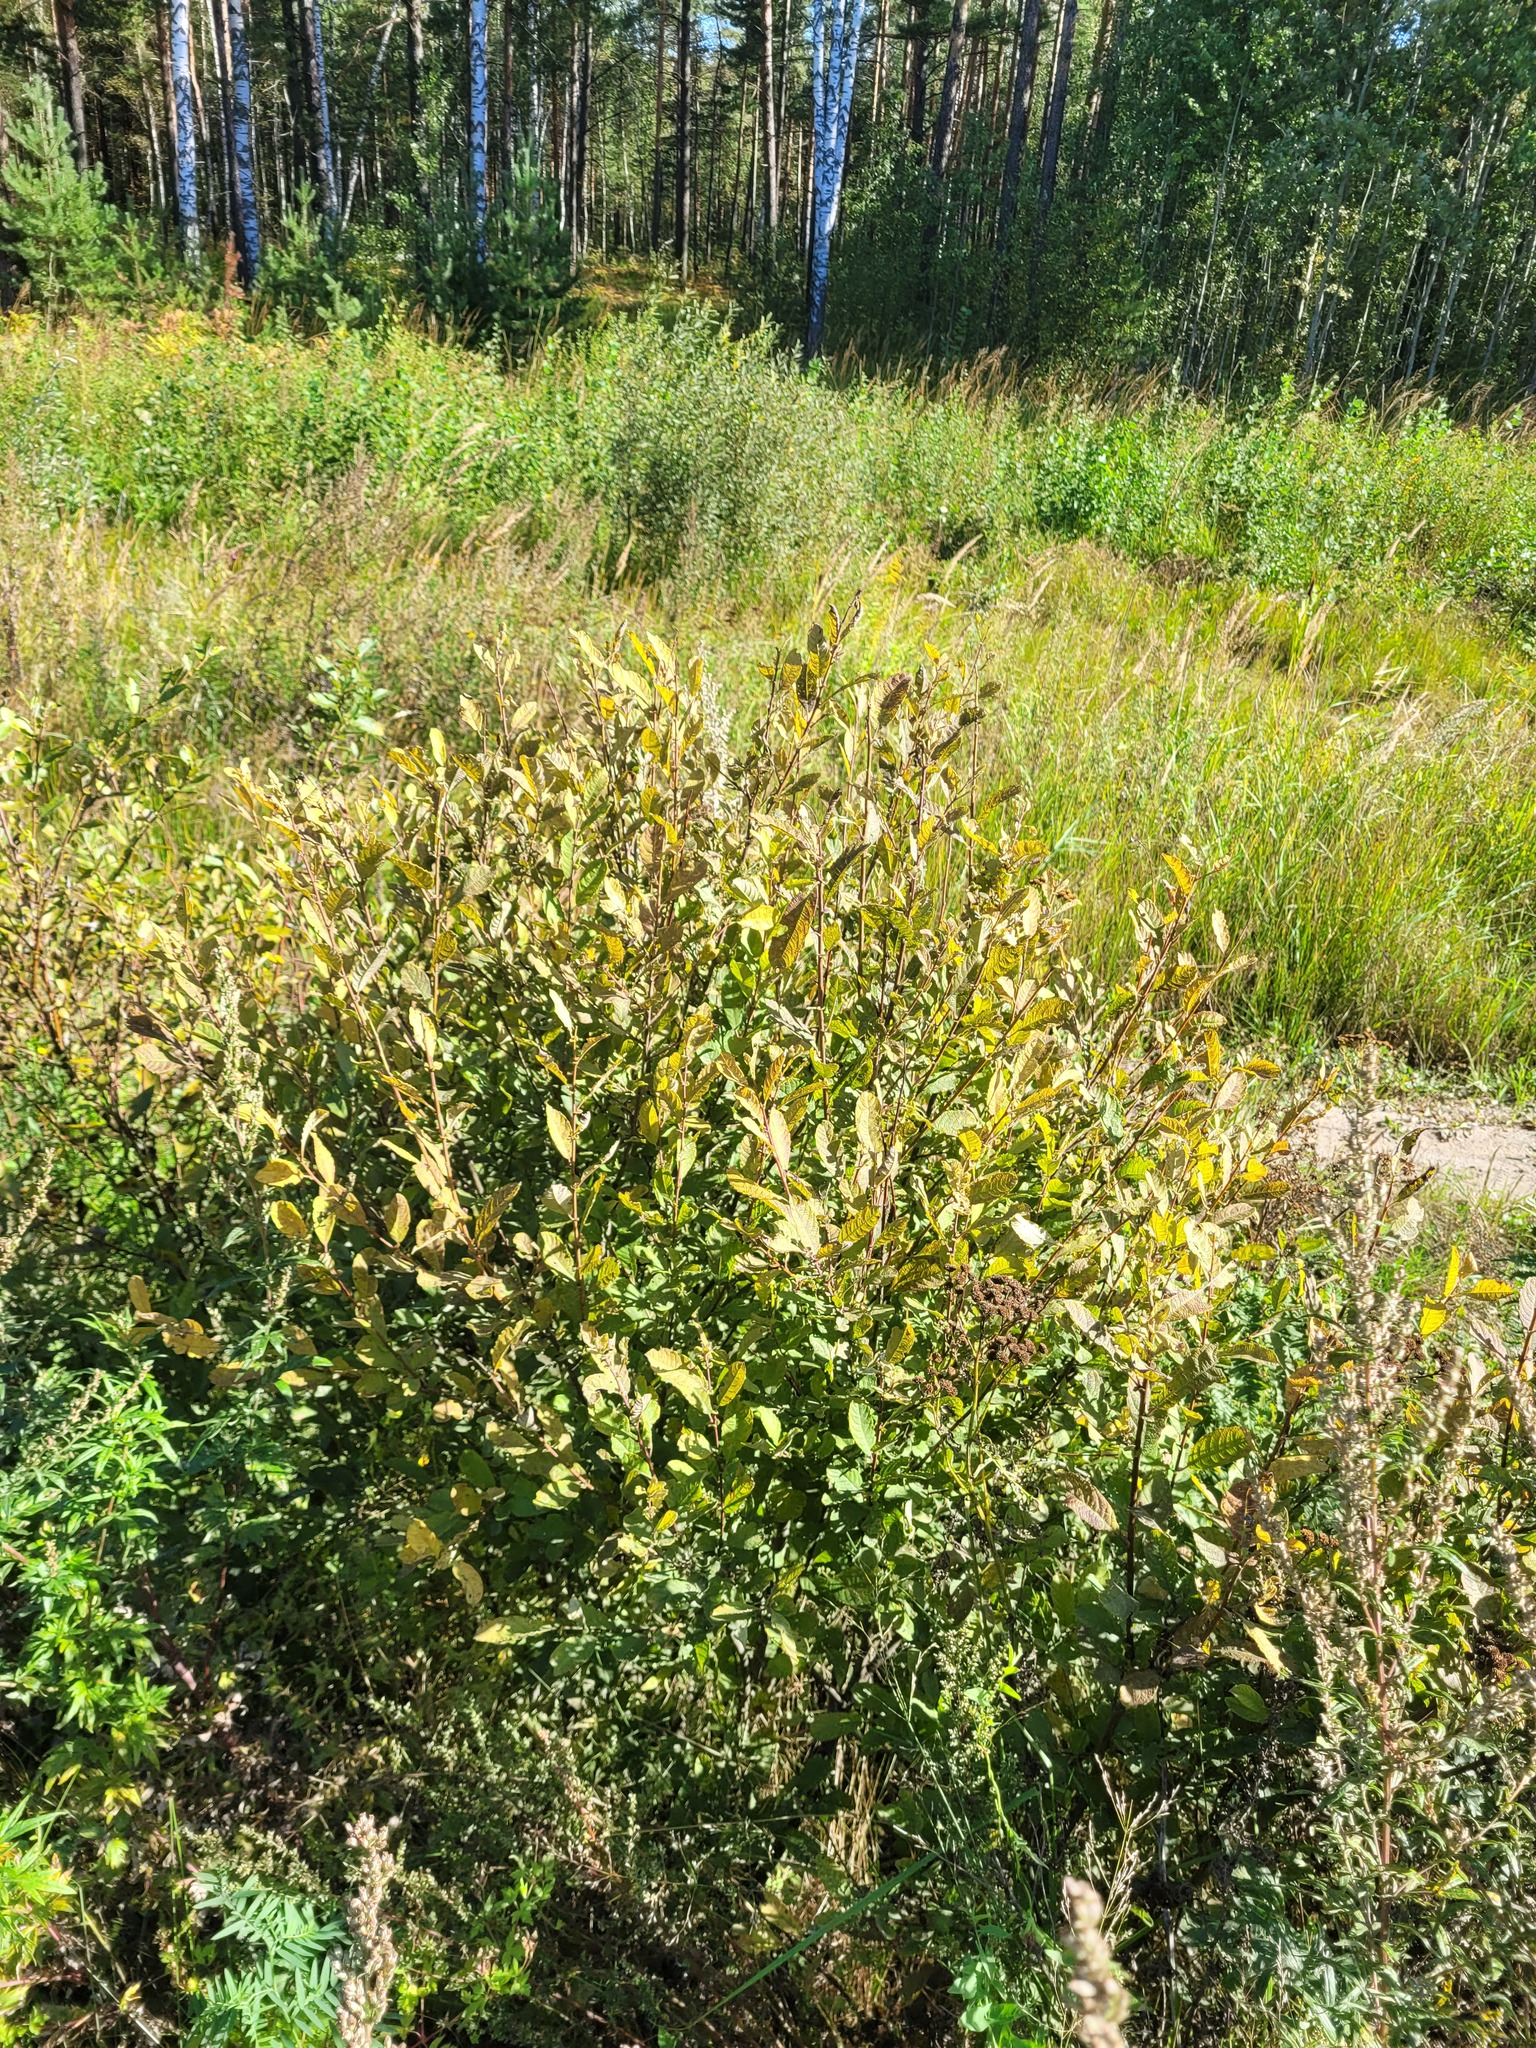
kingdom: Plantae
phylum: Tracheophyta
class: Magnoliopsida
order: Malpighiales
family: Salicaceae
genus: Salix
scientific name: Salix aurita
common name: Eared willow
